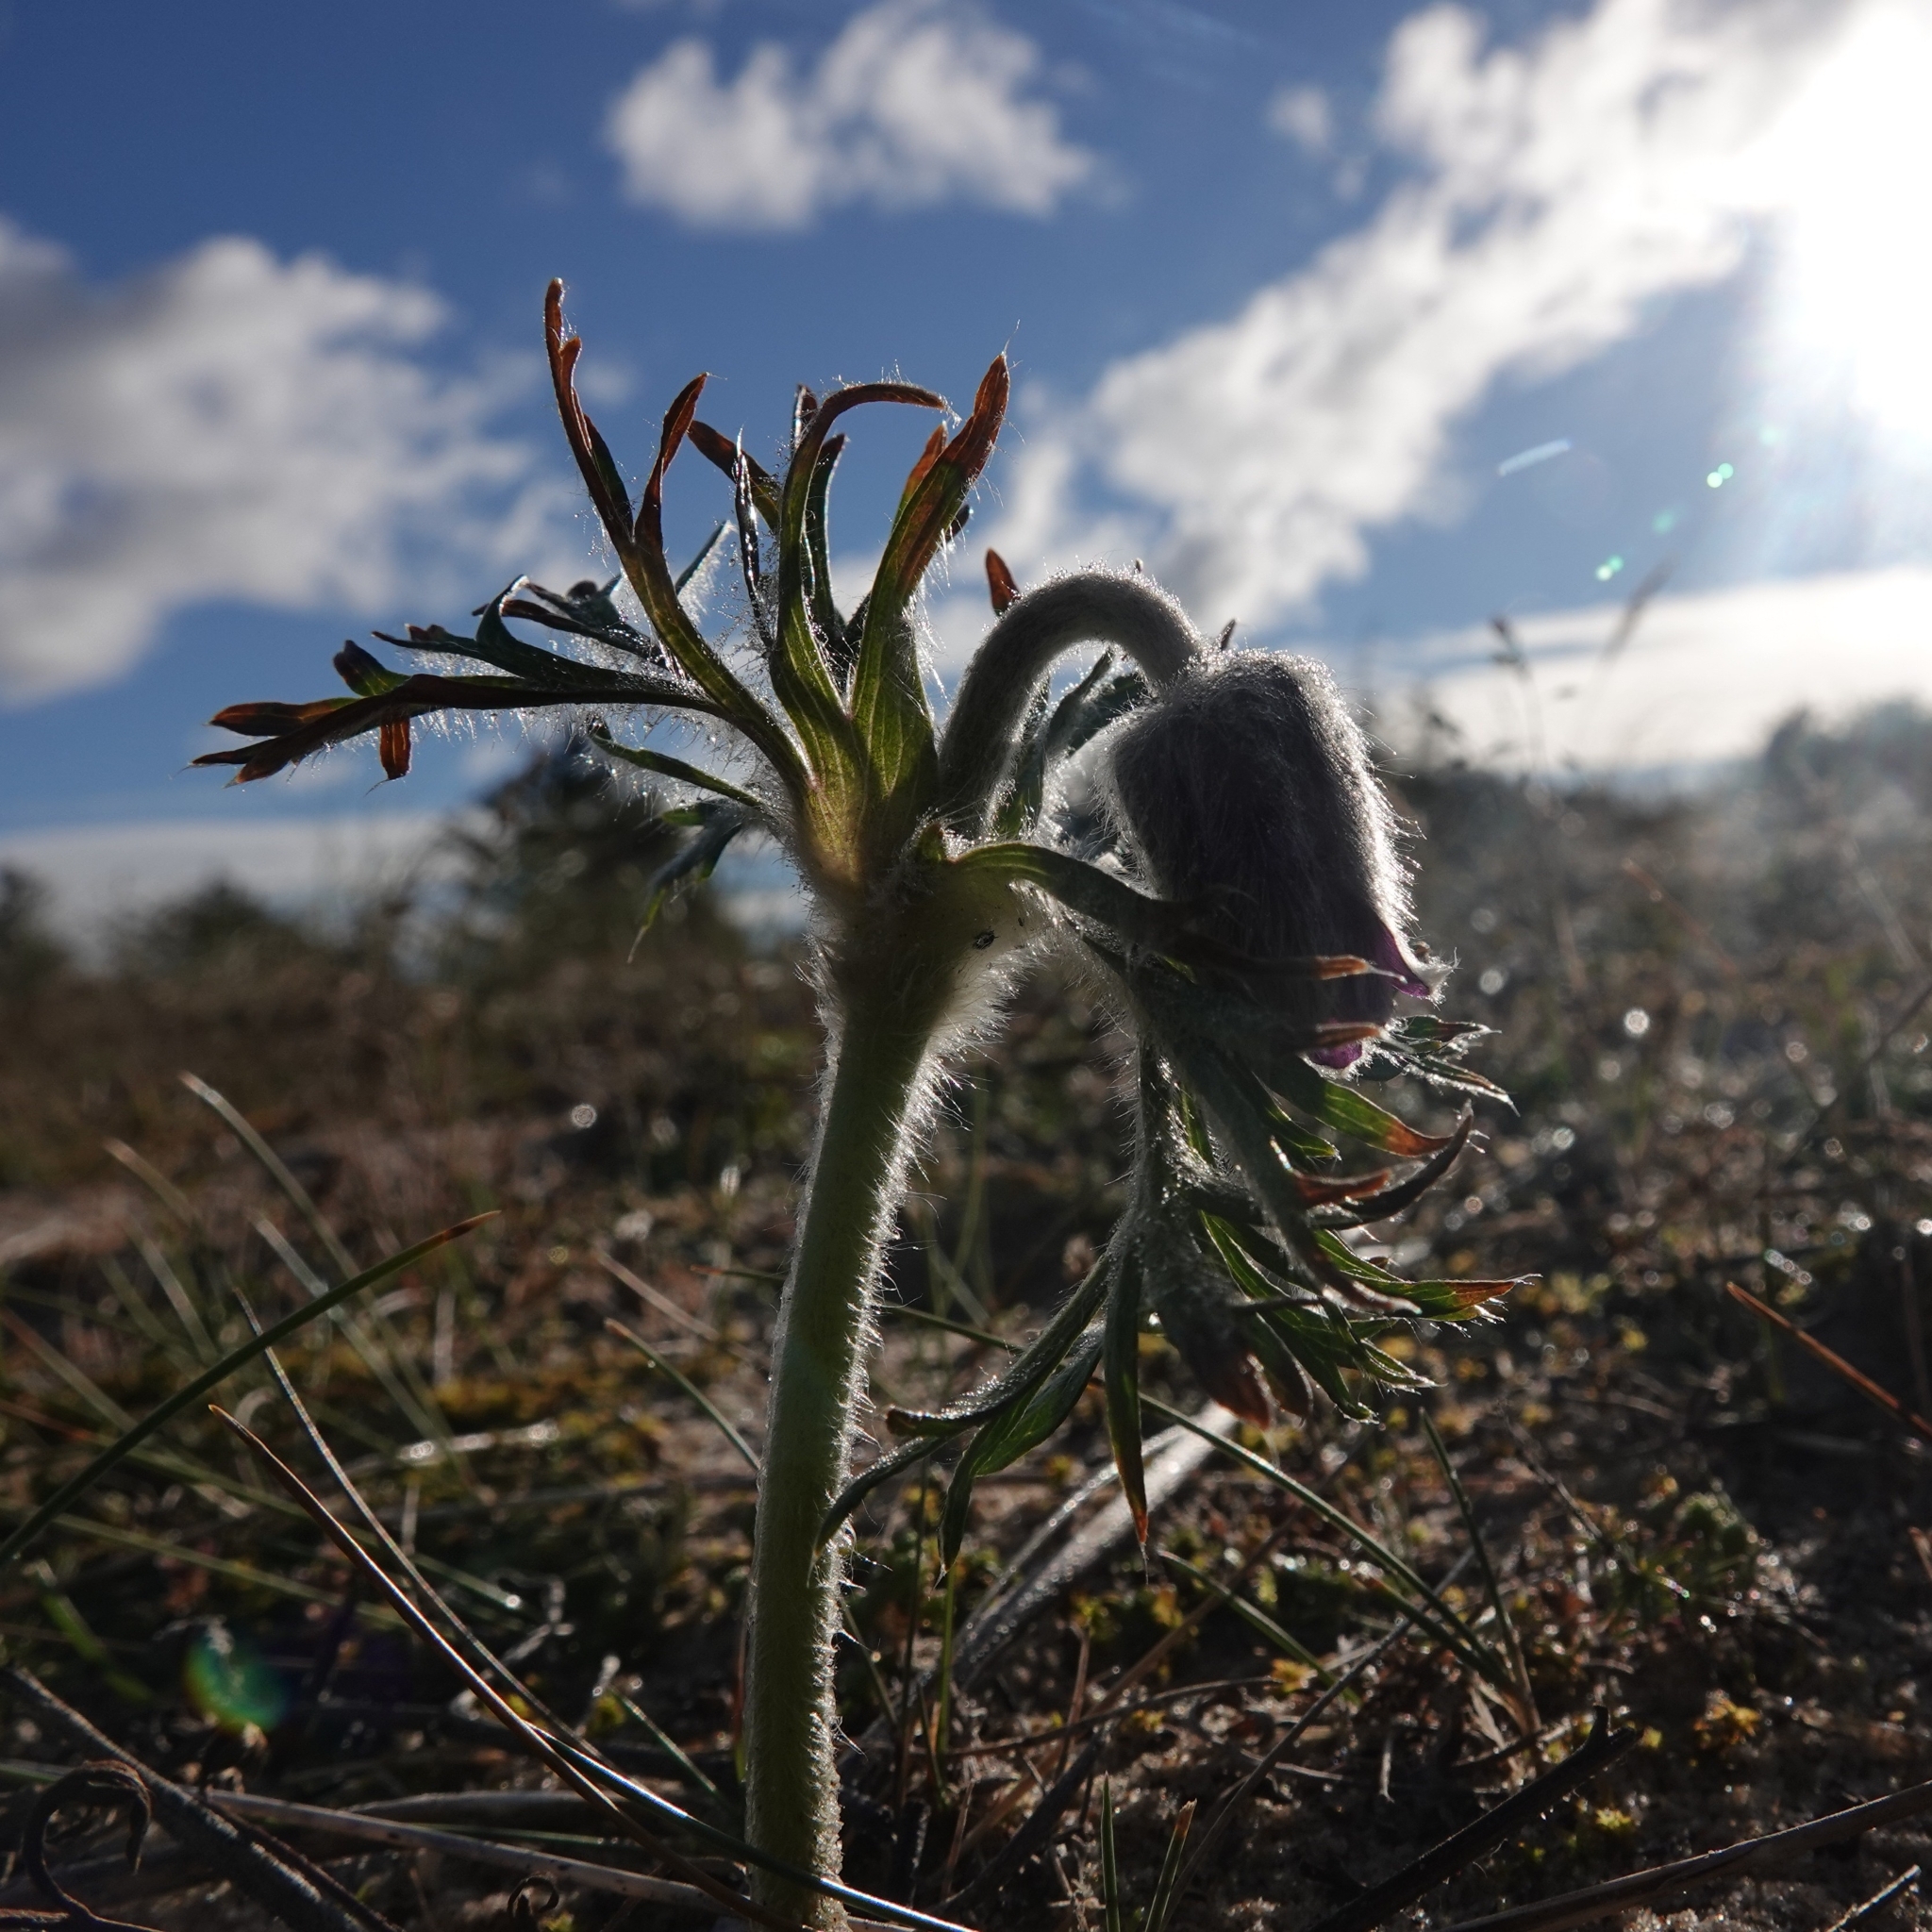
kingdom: Plantae
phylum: Tracheophyta
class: Magnoliopsida
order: Ranunculales
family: Ranunculaceae
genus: Pulsatilla
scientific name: Pulsatilla pratensis
